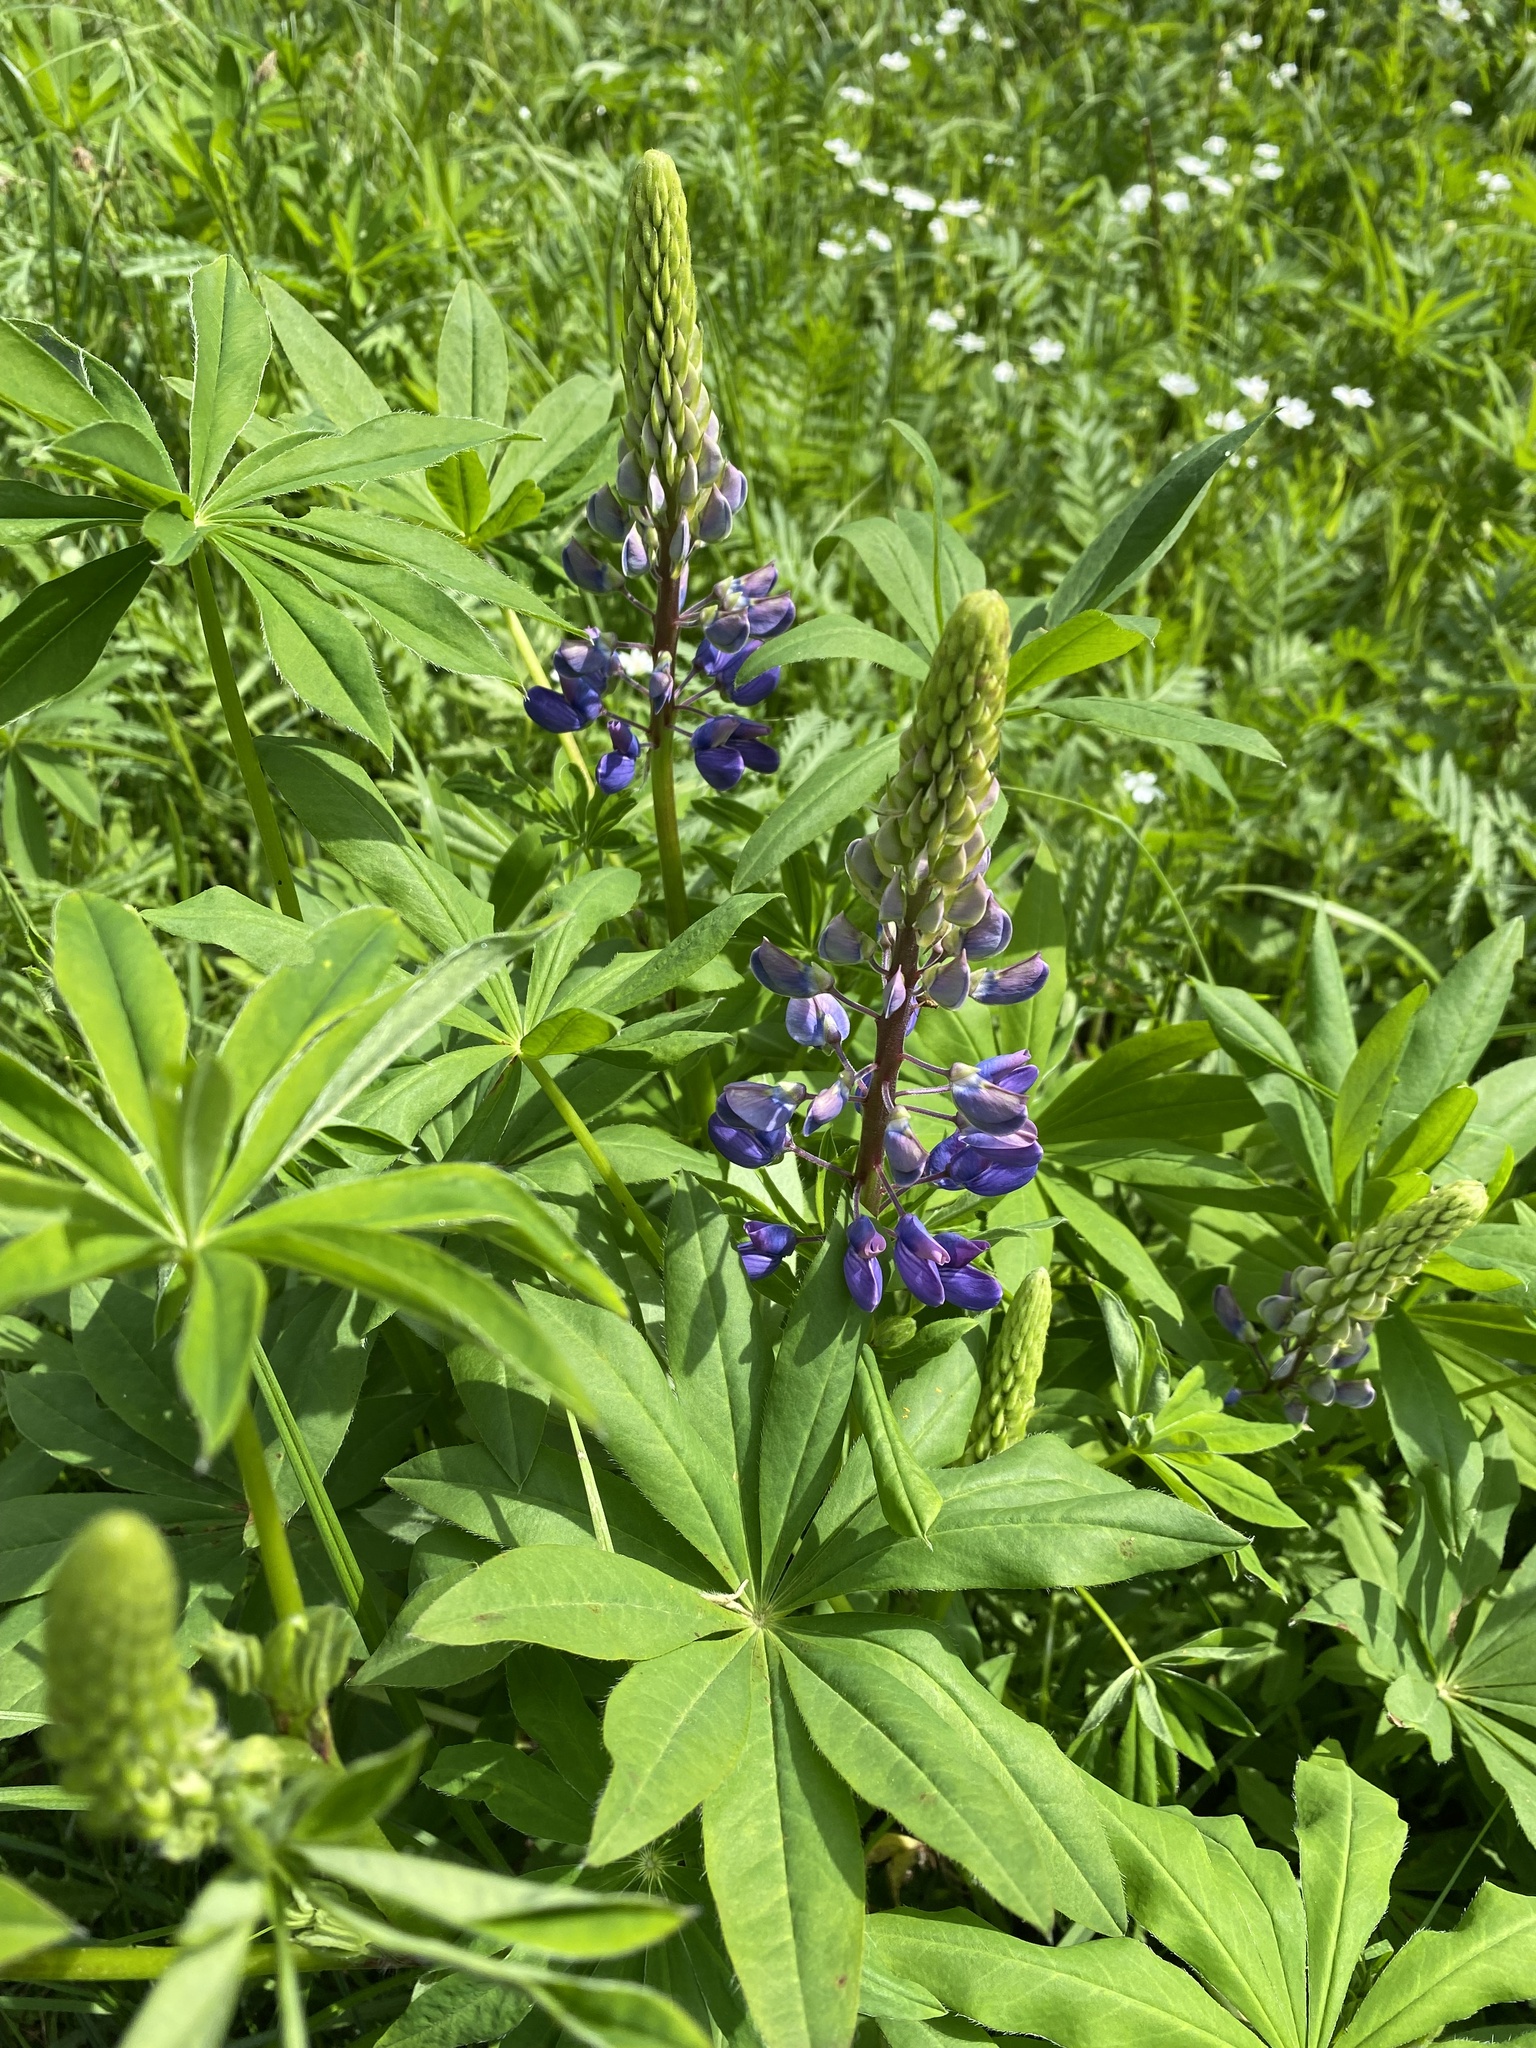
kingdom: Plantae
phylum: Tracheophyta
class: Magnoliopsida
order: Fabales
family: Fabaceae
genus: Lupinus
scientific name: Lupinus polyphyllus
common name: Garden lupin
